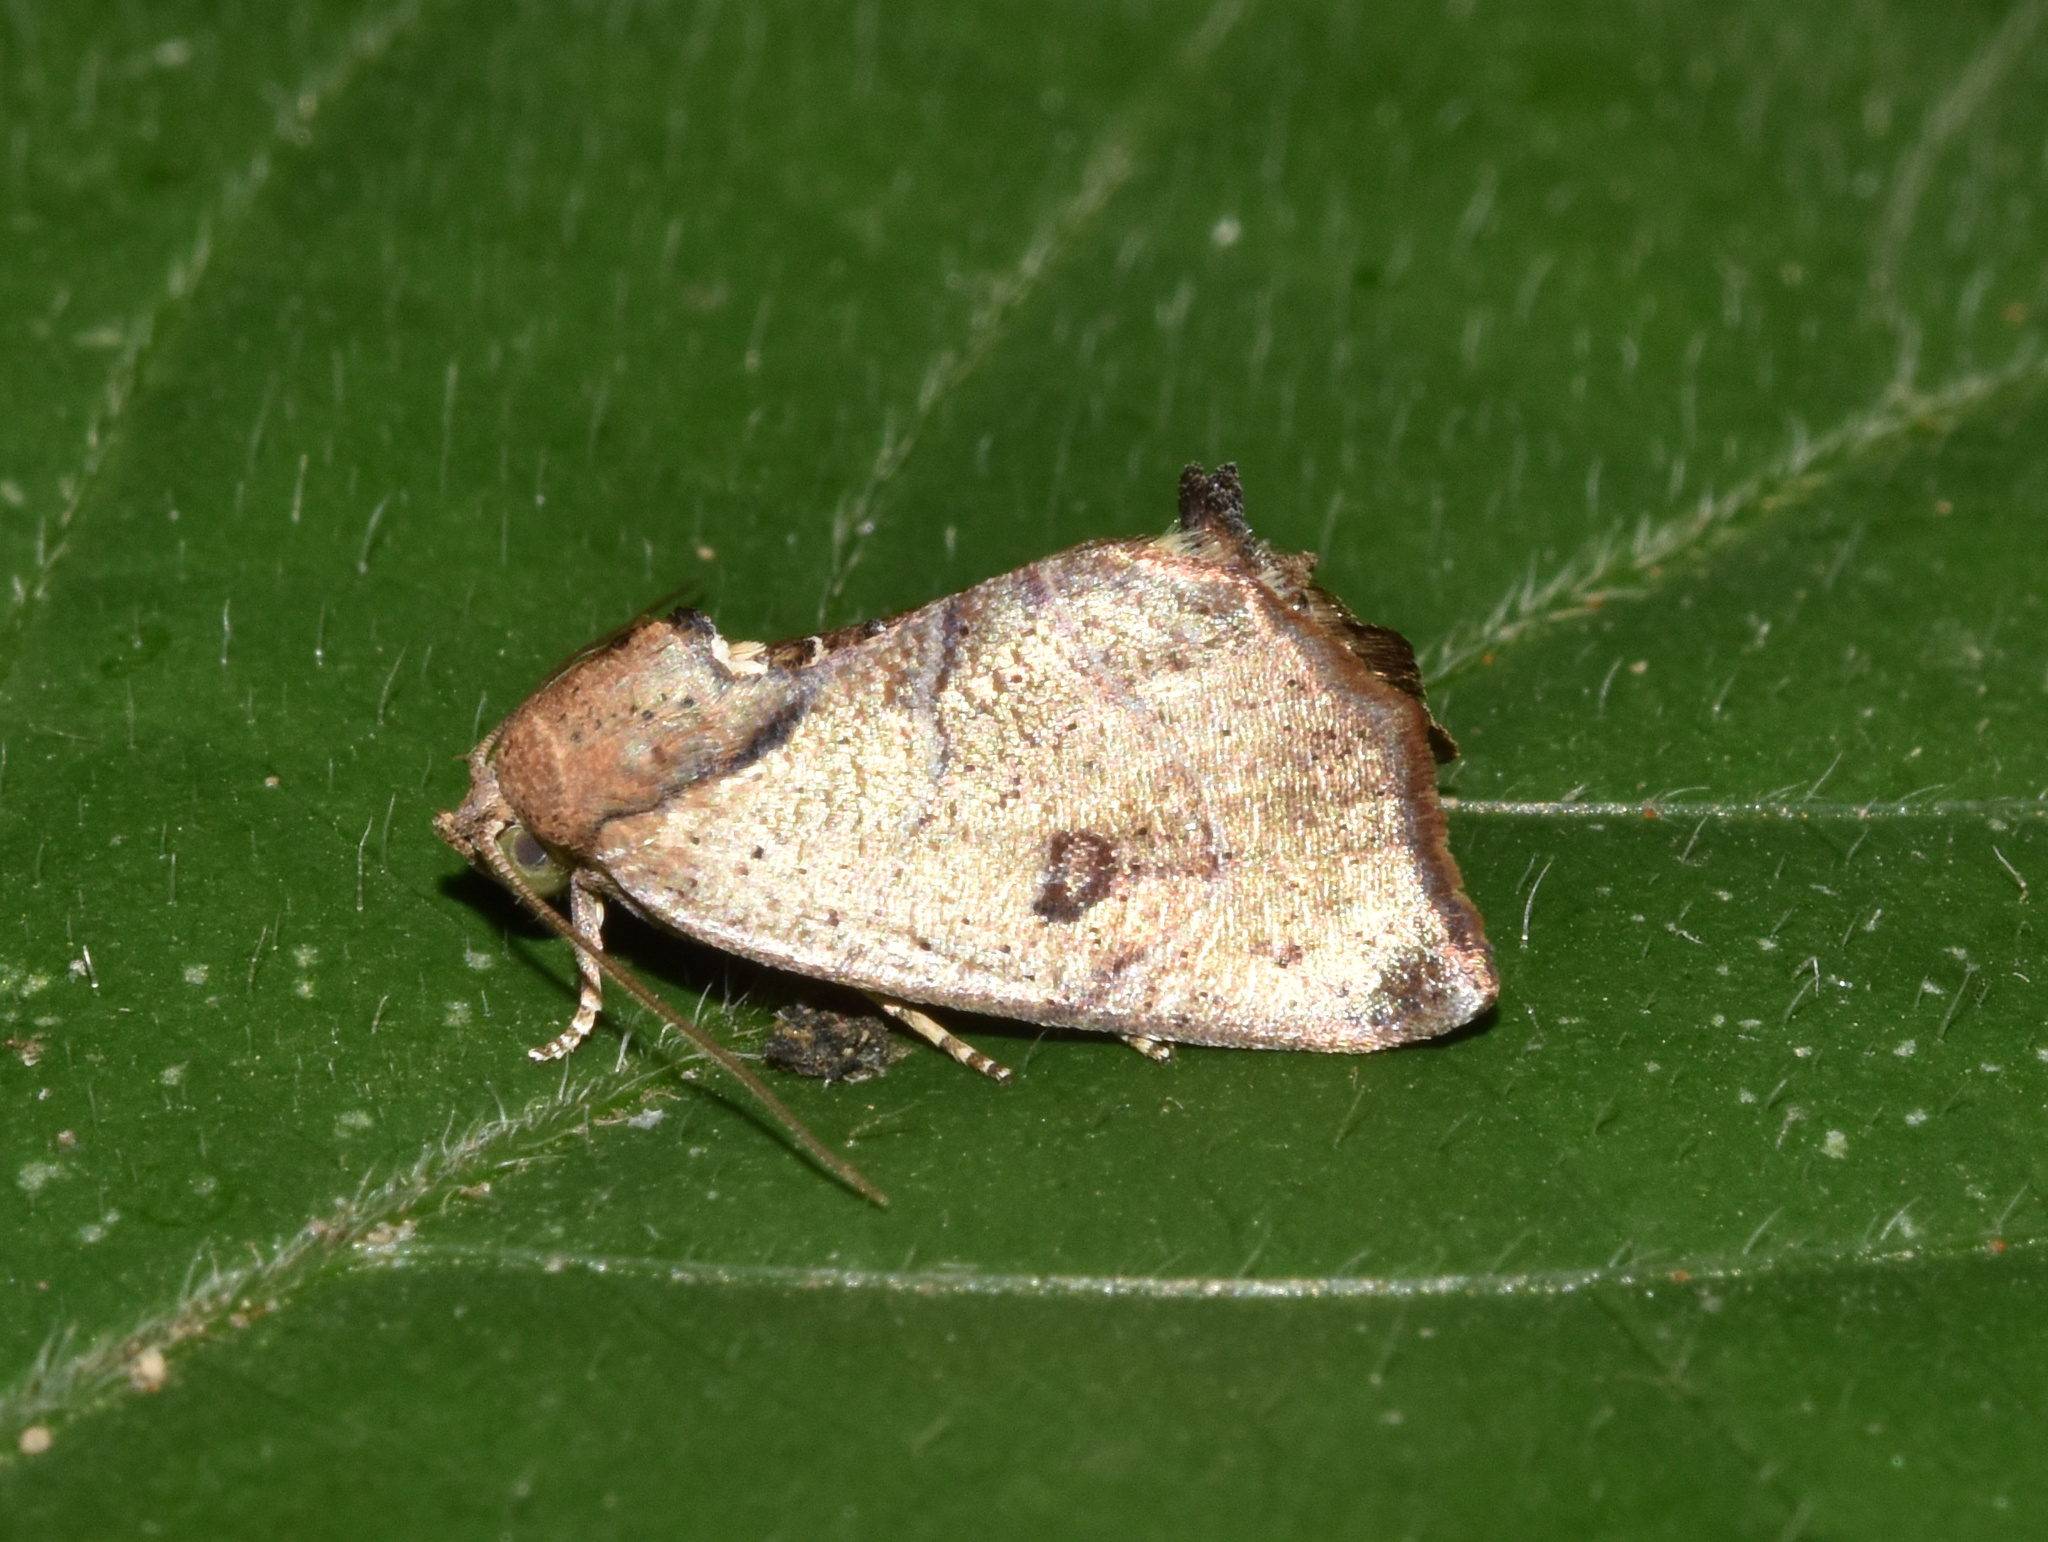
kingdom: Animalia
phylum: Arthropoda
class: Insecta
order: Lepidoptera
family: Nolidae
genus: Goniocalpe
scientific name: Goniocalpe heteromorpha
